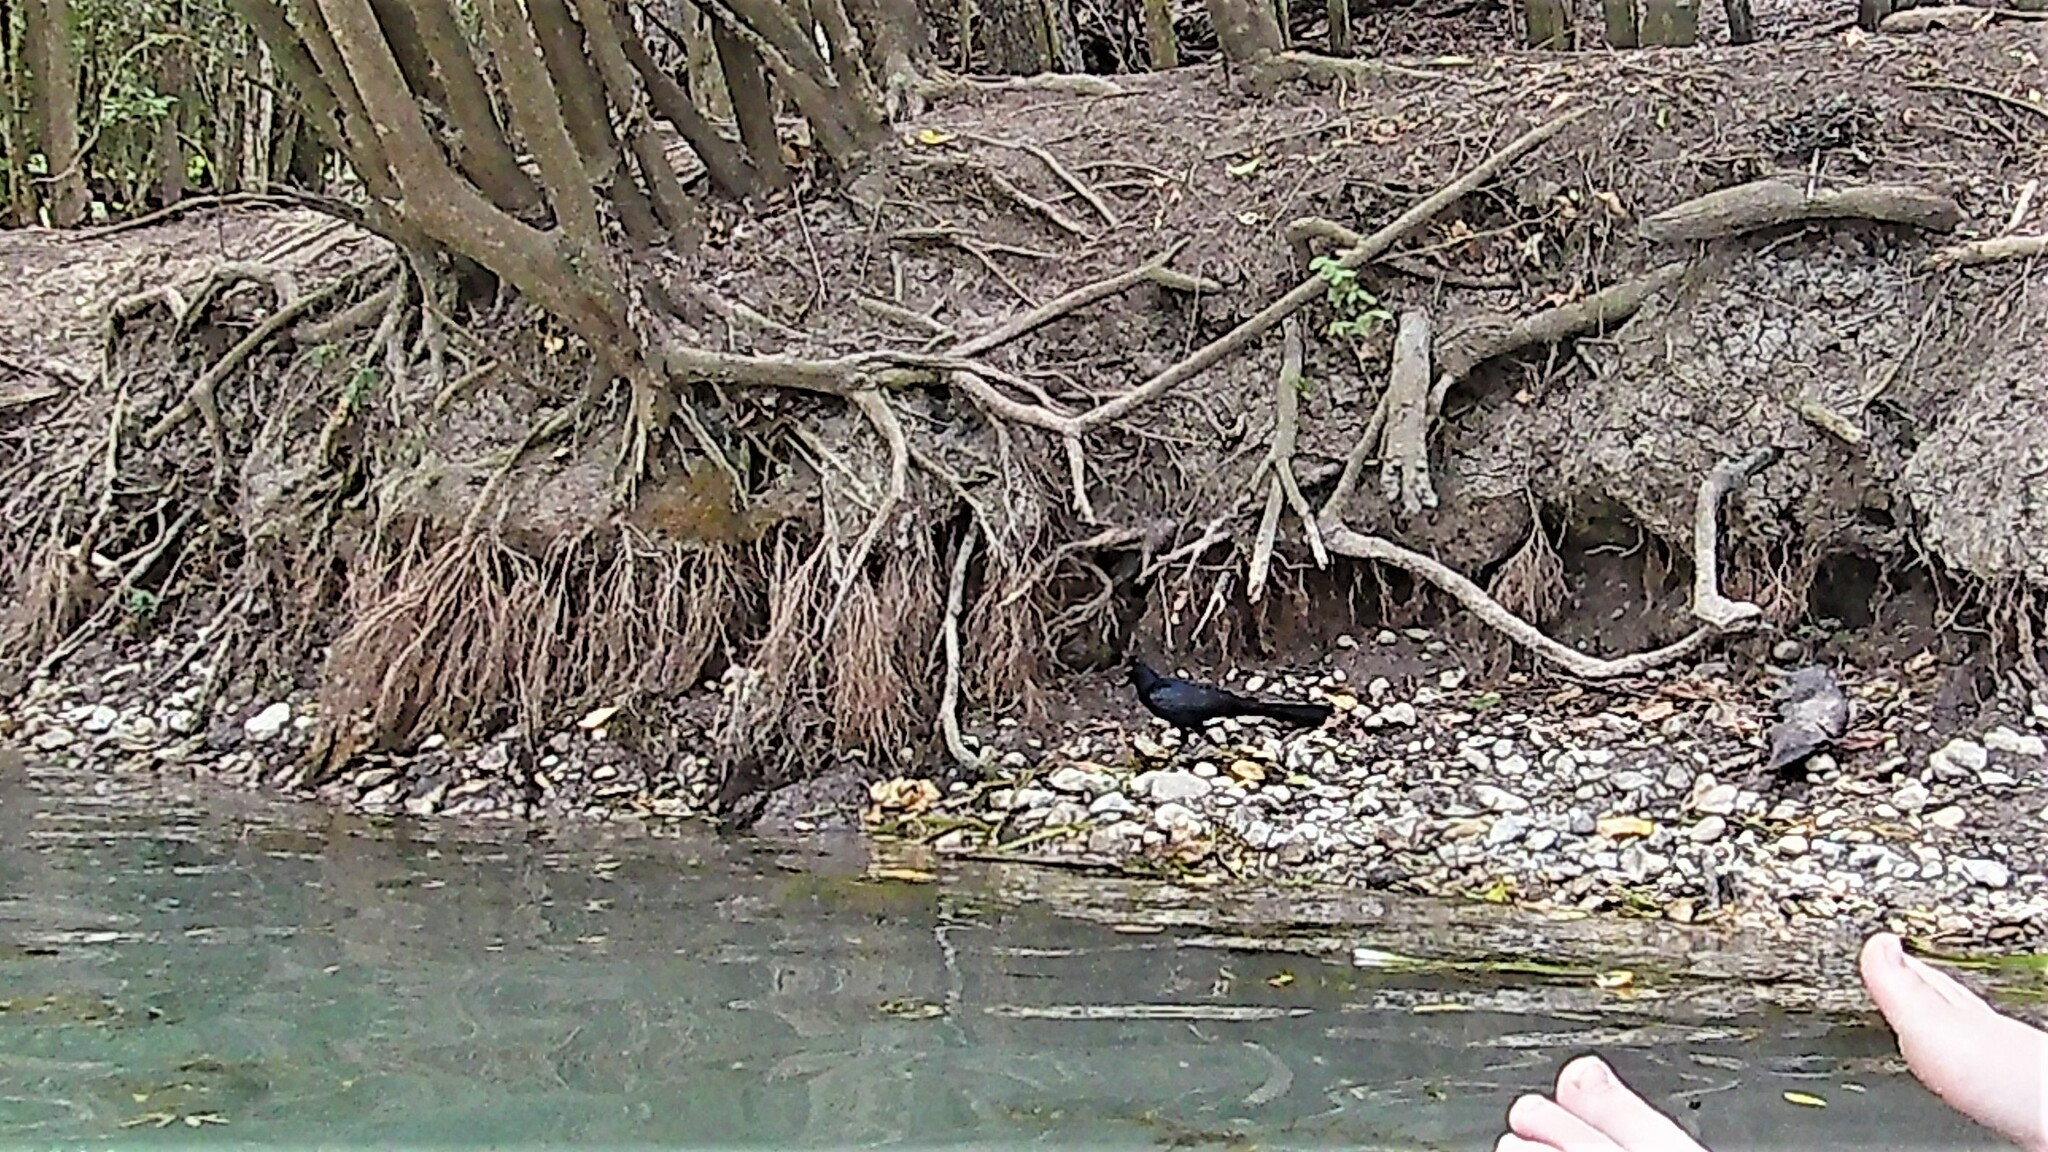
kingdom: Animalia
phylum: Chordata
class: Aves
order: Passeriformes
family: Icteridae
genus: Quiscalus
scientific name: Quiscalus mexicanus
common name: Great-tailed grackle
